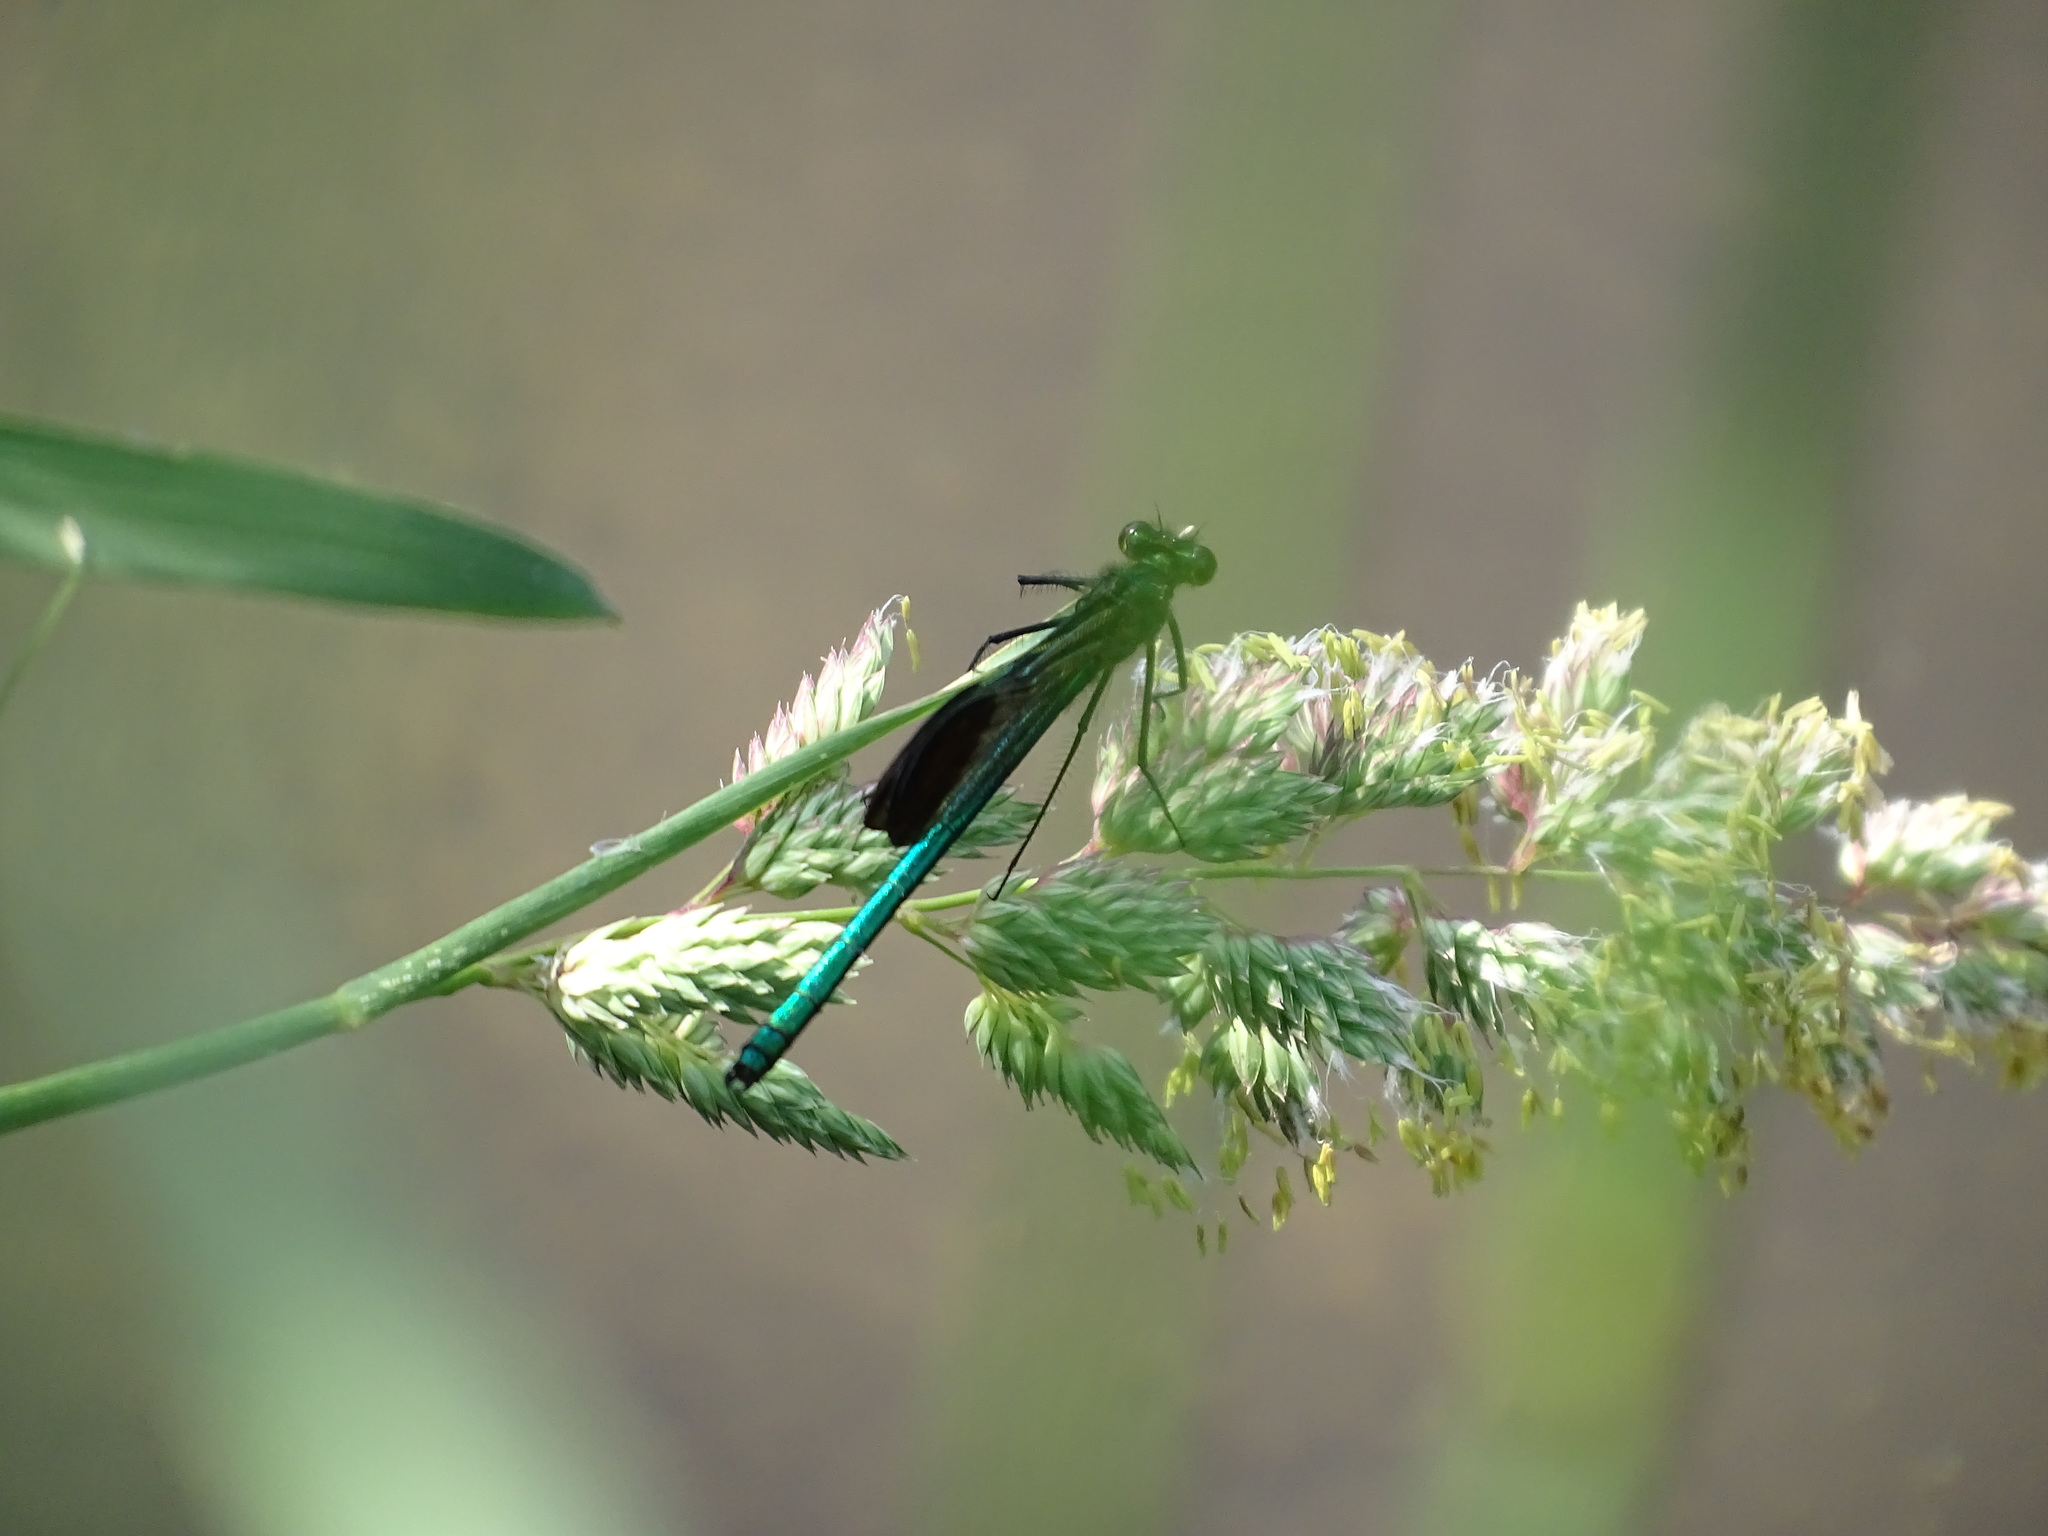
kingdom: Animalia
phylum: Arthropoda
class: Insecta
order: Odonata
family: Calopterygidae
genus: Calopteryx
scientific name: Calopteryx aequabilis
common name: River jewelwing
